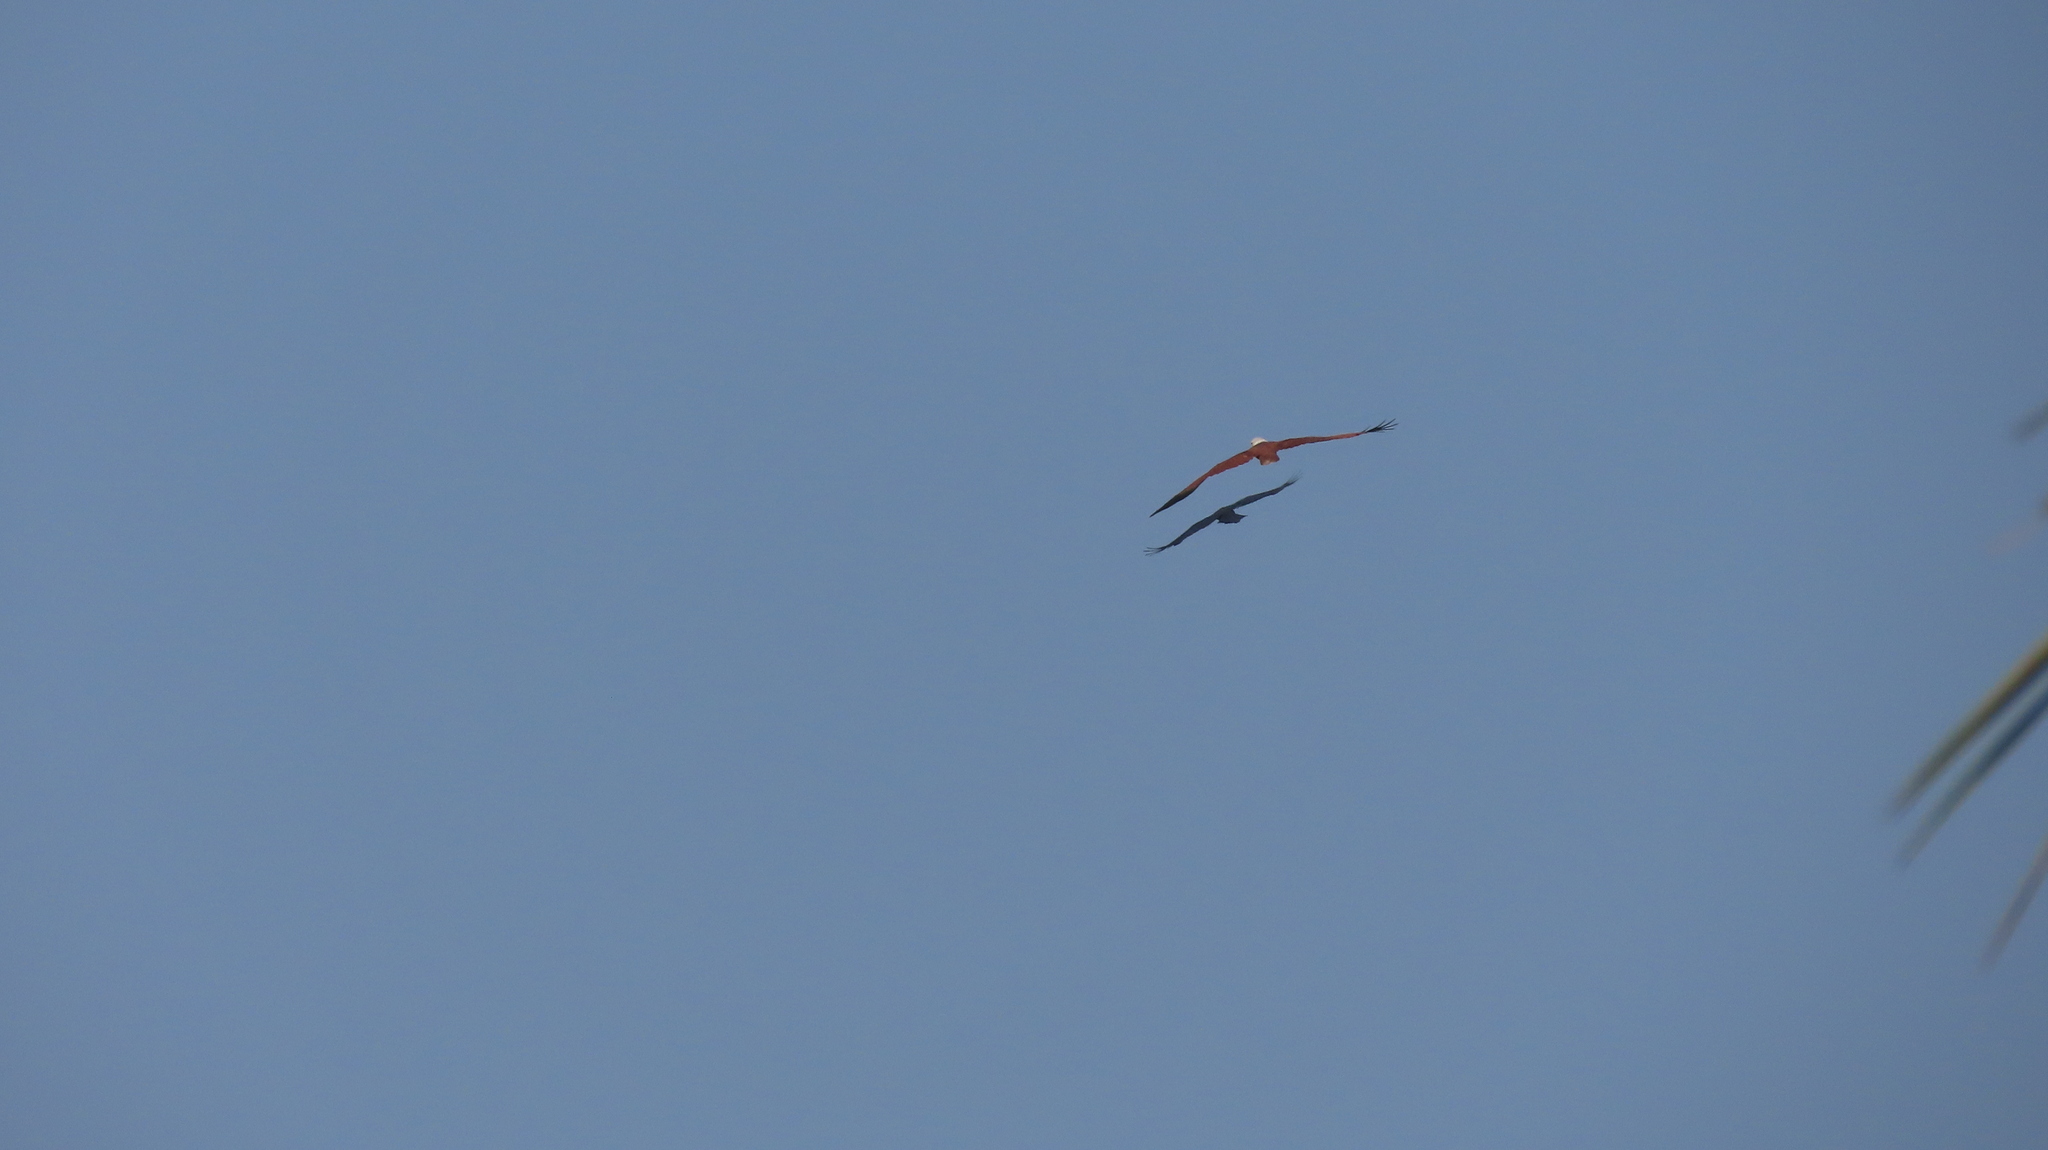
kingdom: Animalia
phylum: Chordata
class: Aves
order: Accipitriformes
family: Accipitridae
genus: Haliastur
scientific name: Haliastur indus
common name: Brahminy kite
